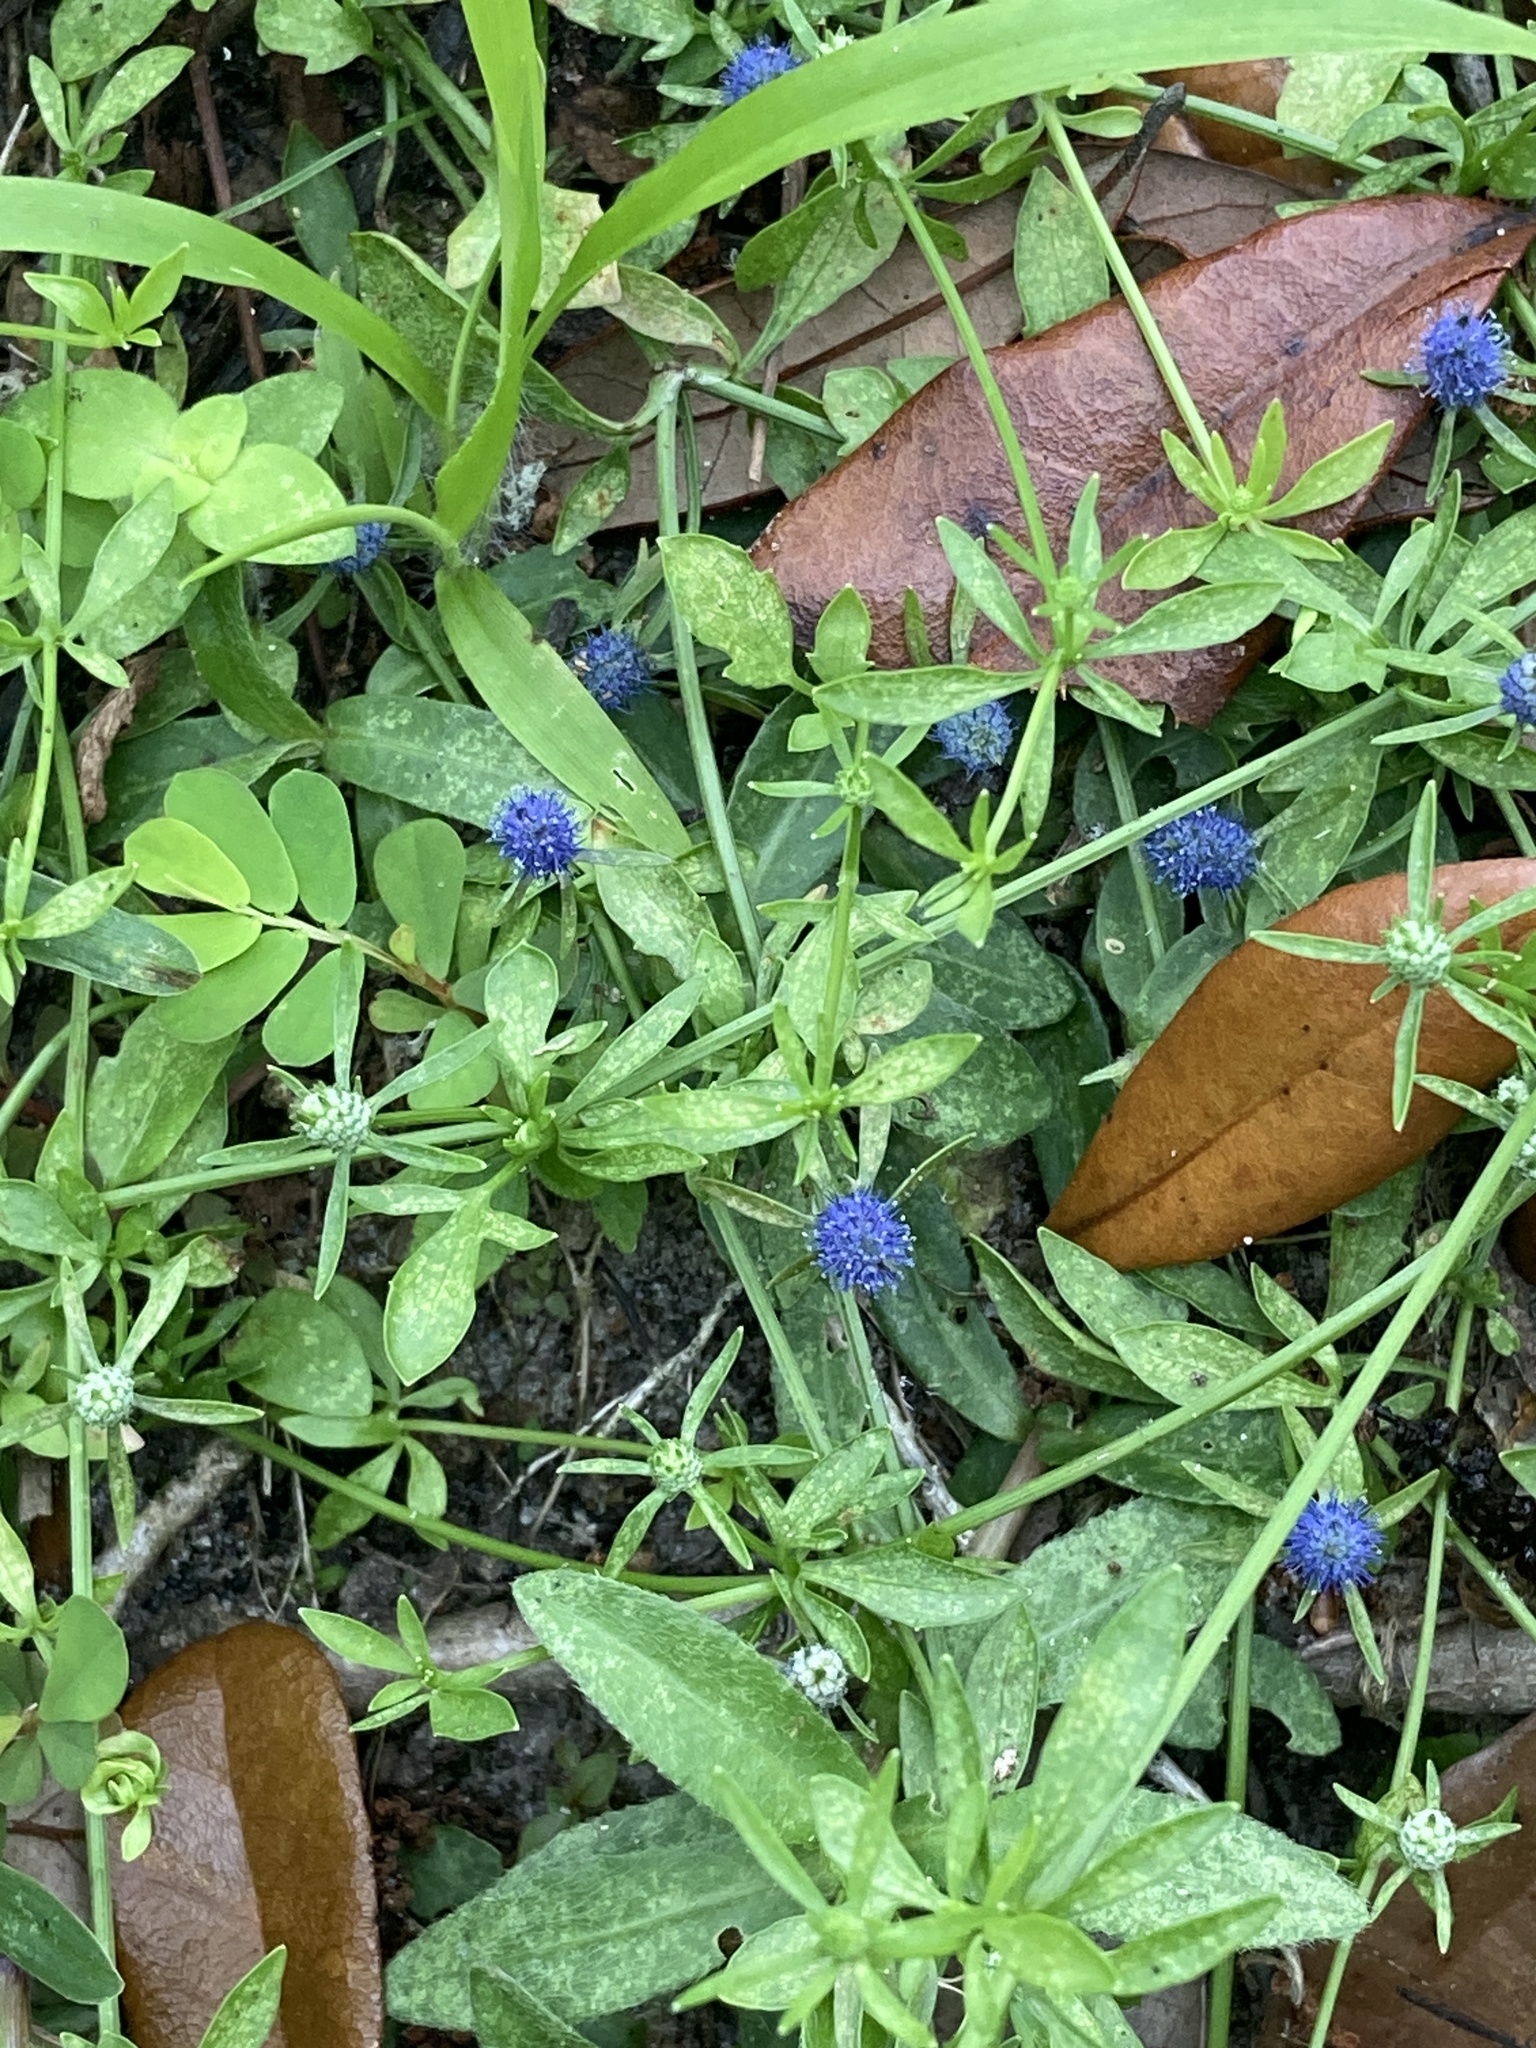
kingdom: Plantae
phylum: Tracheophyta
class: Magnoliopsida
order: Apiales
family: Apiaceae
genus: Eryngium
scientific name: Eryngium prostratum
